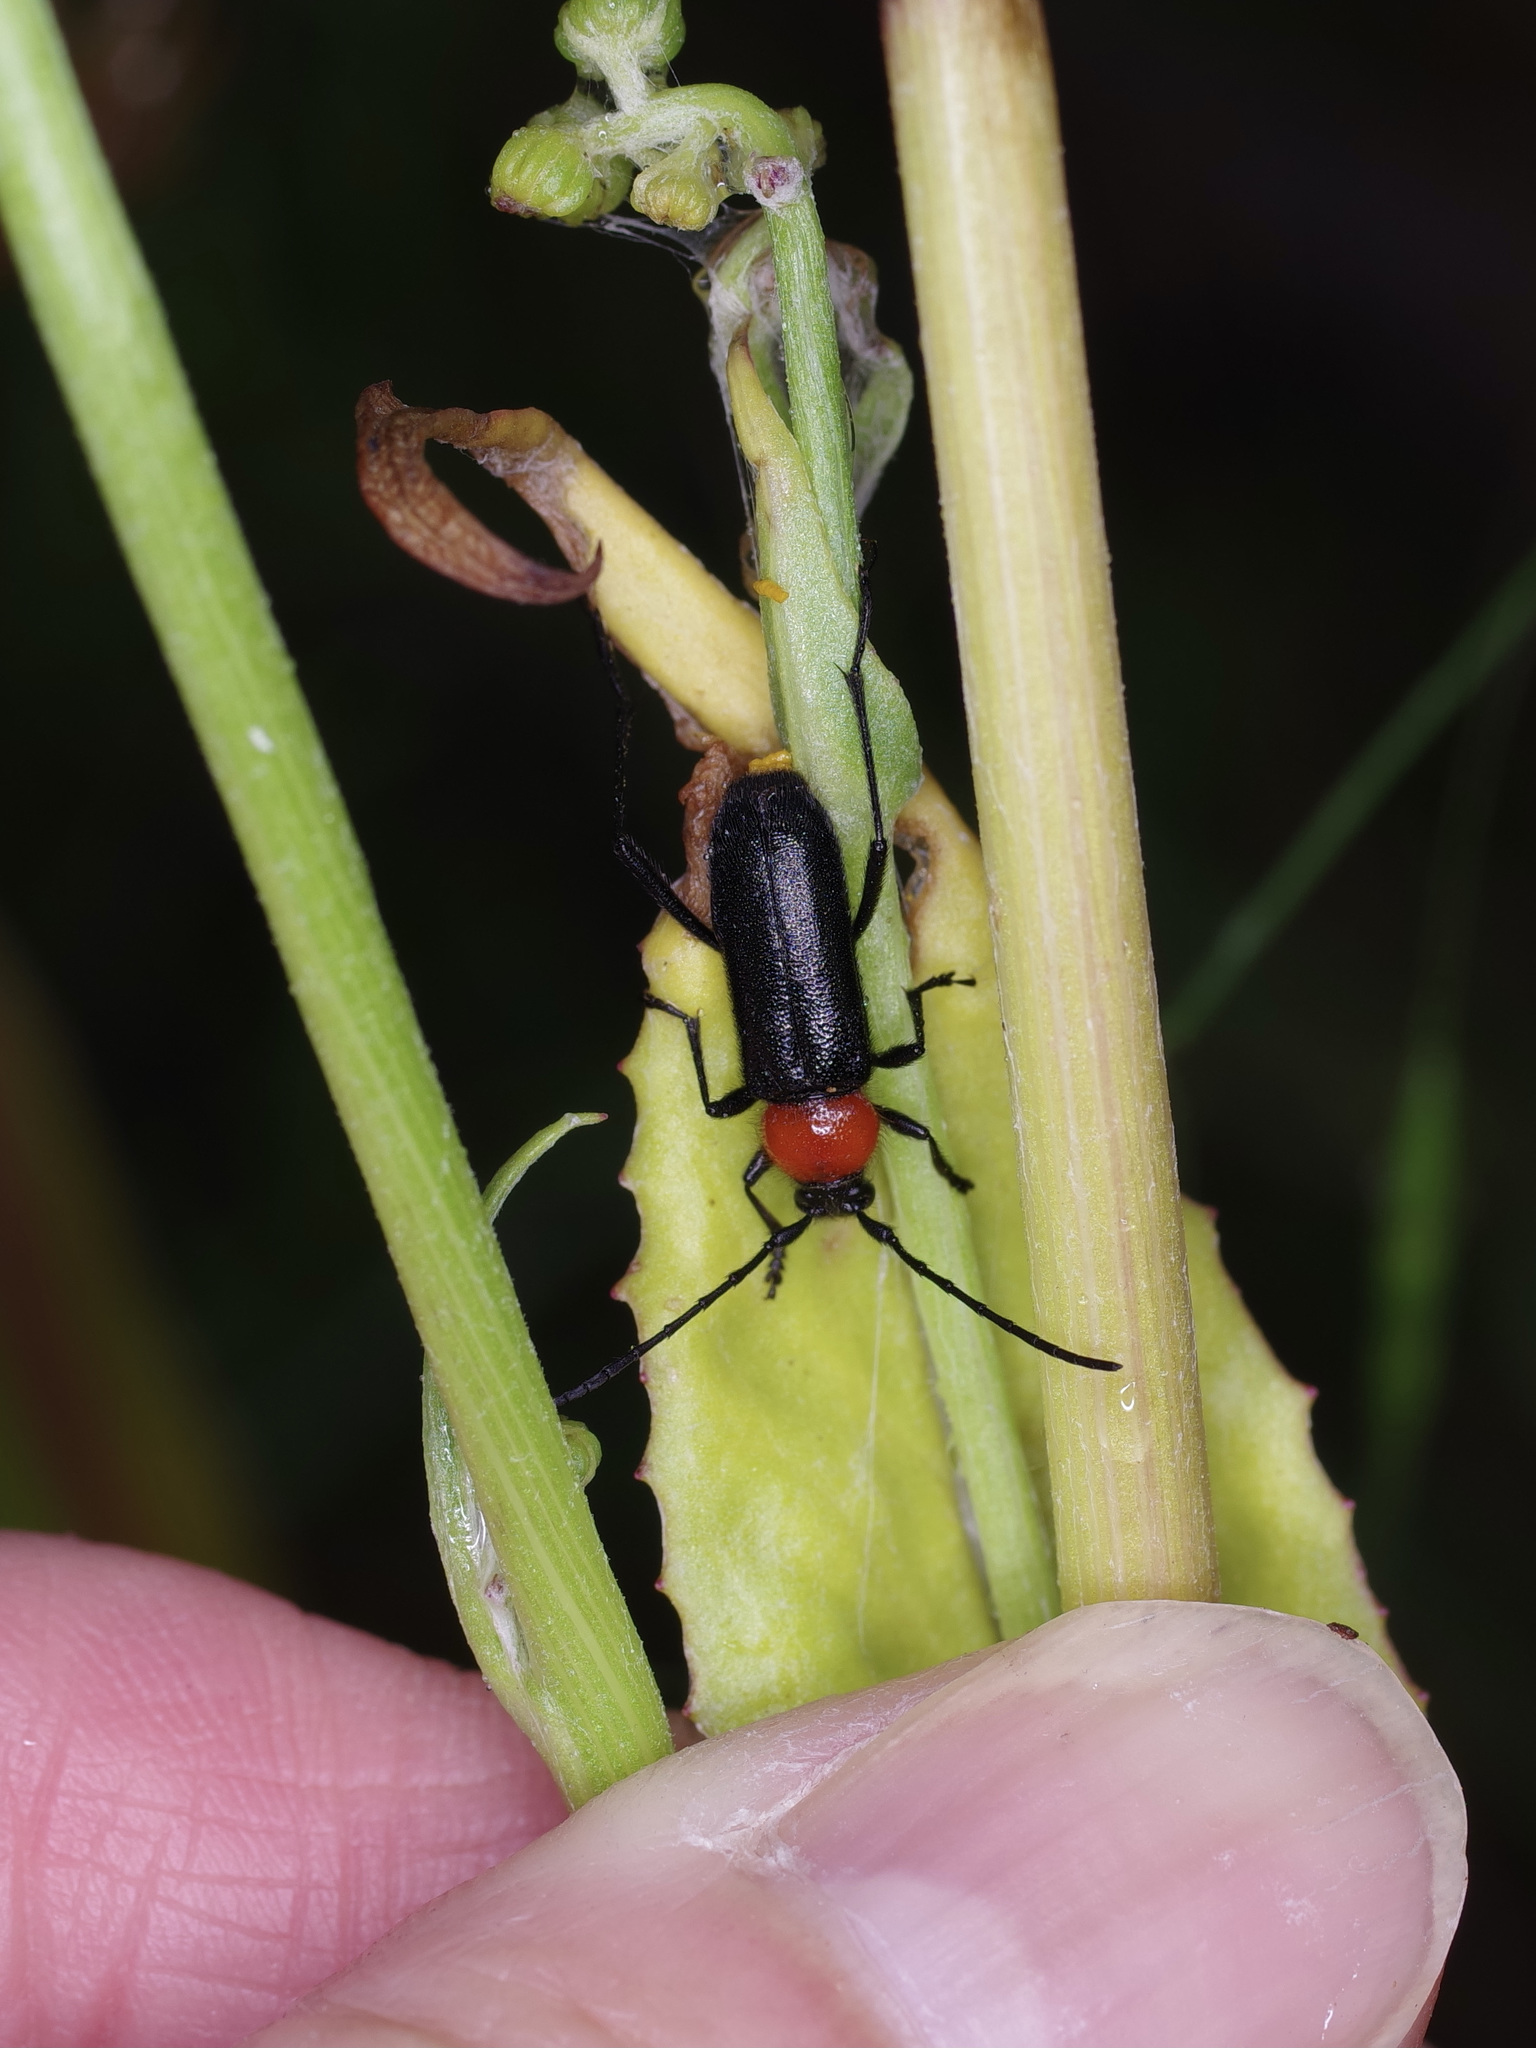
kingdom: Animalia
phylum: Arthropoda
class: Insecta
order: Coleoptera
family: Cerambycidae
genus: Batyle
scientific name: Batyle ignicollis
